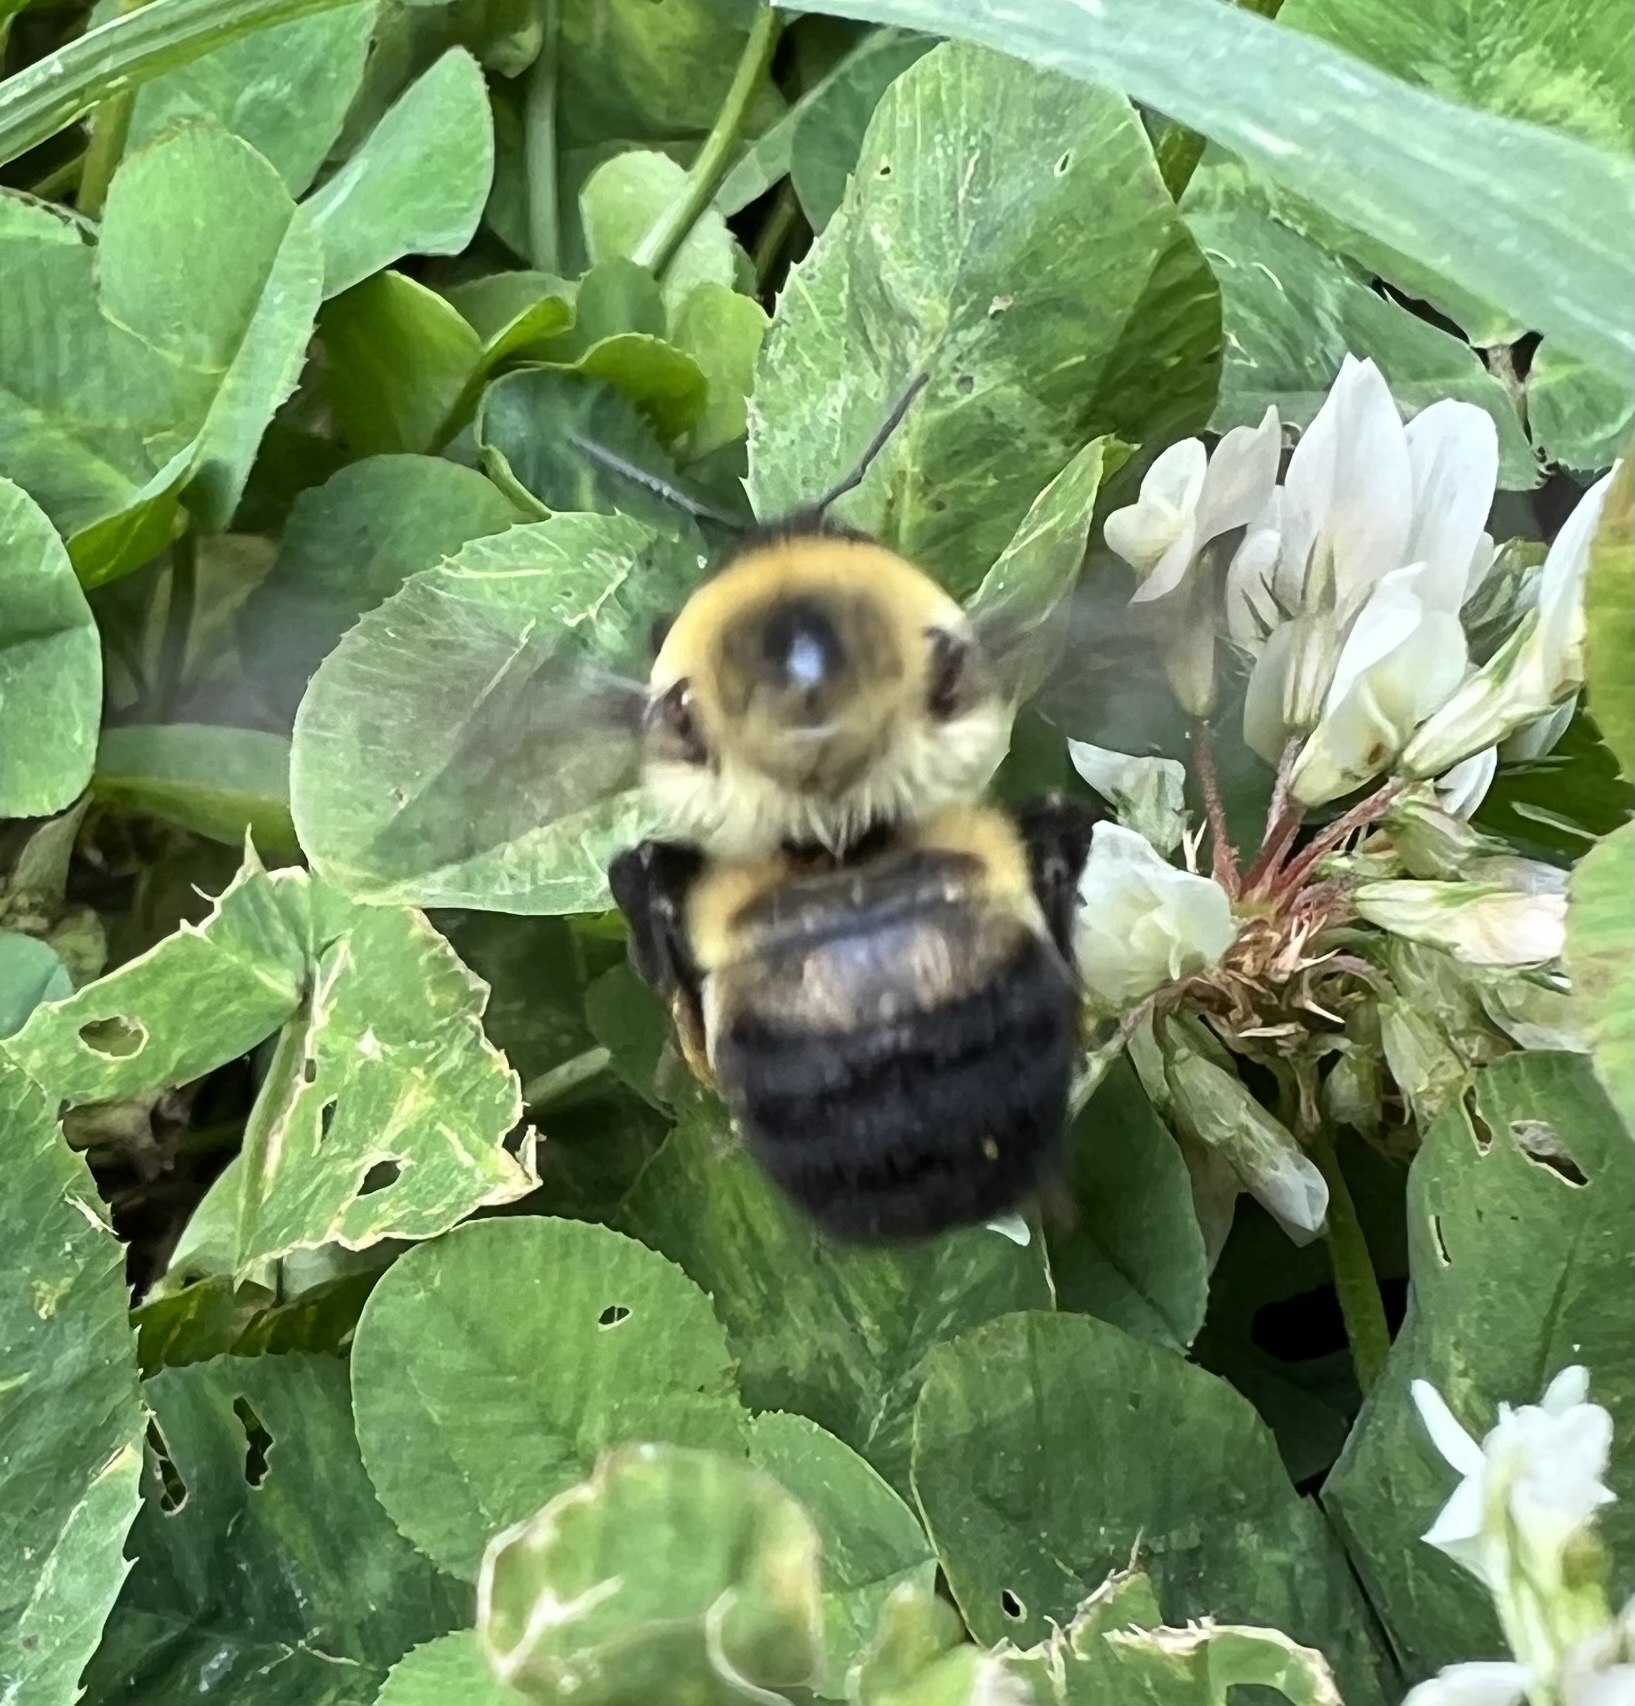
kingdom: Animalia
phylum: Arthropoda
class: Insecta
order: Hymenoptera
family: Apidae
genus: Bombus
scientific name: Bombus griseocollis
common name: Brown-belted bumble bee
